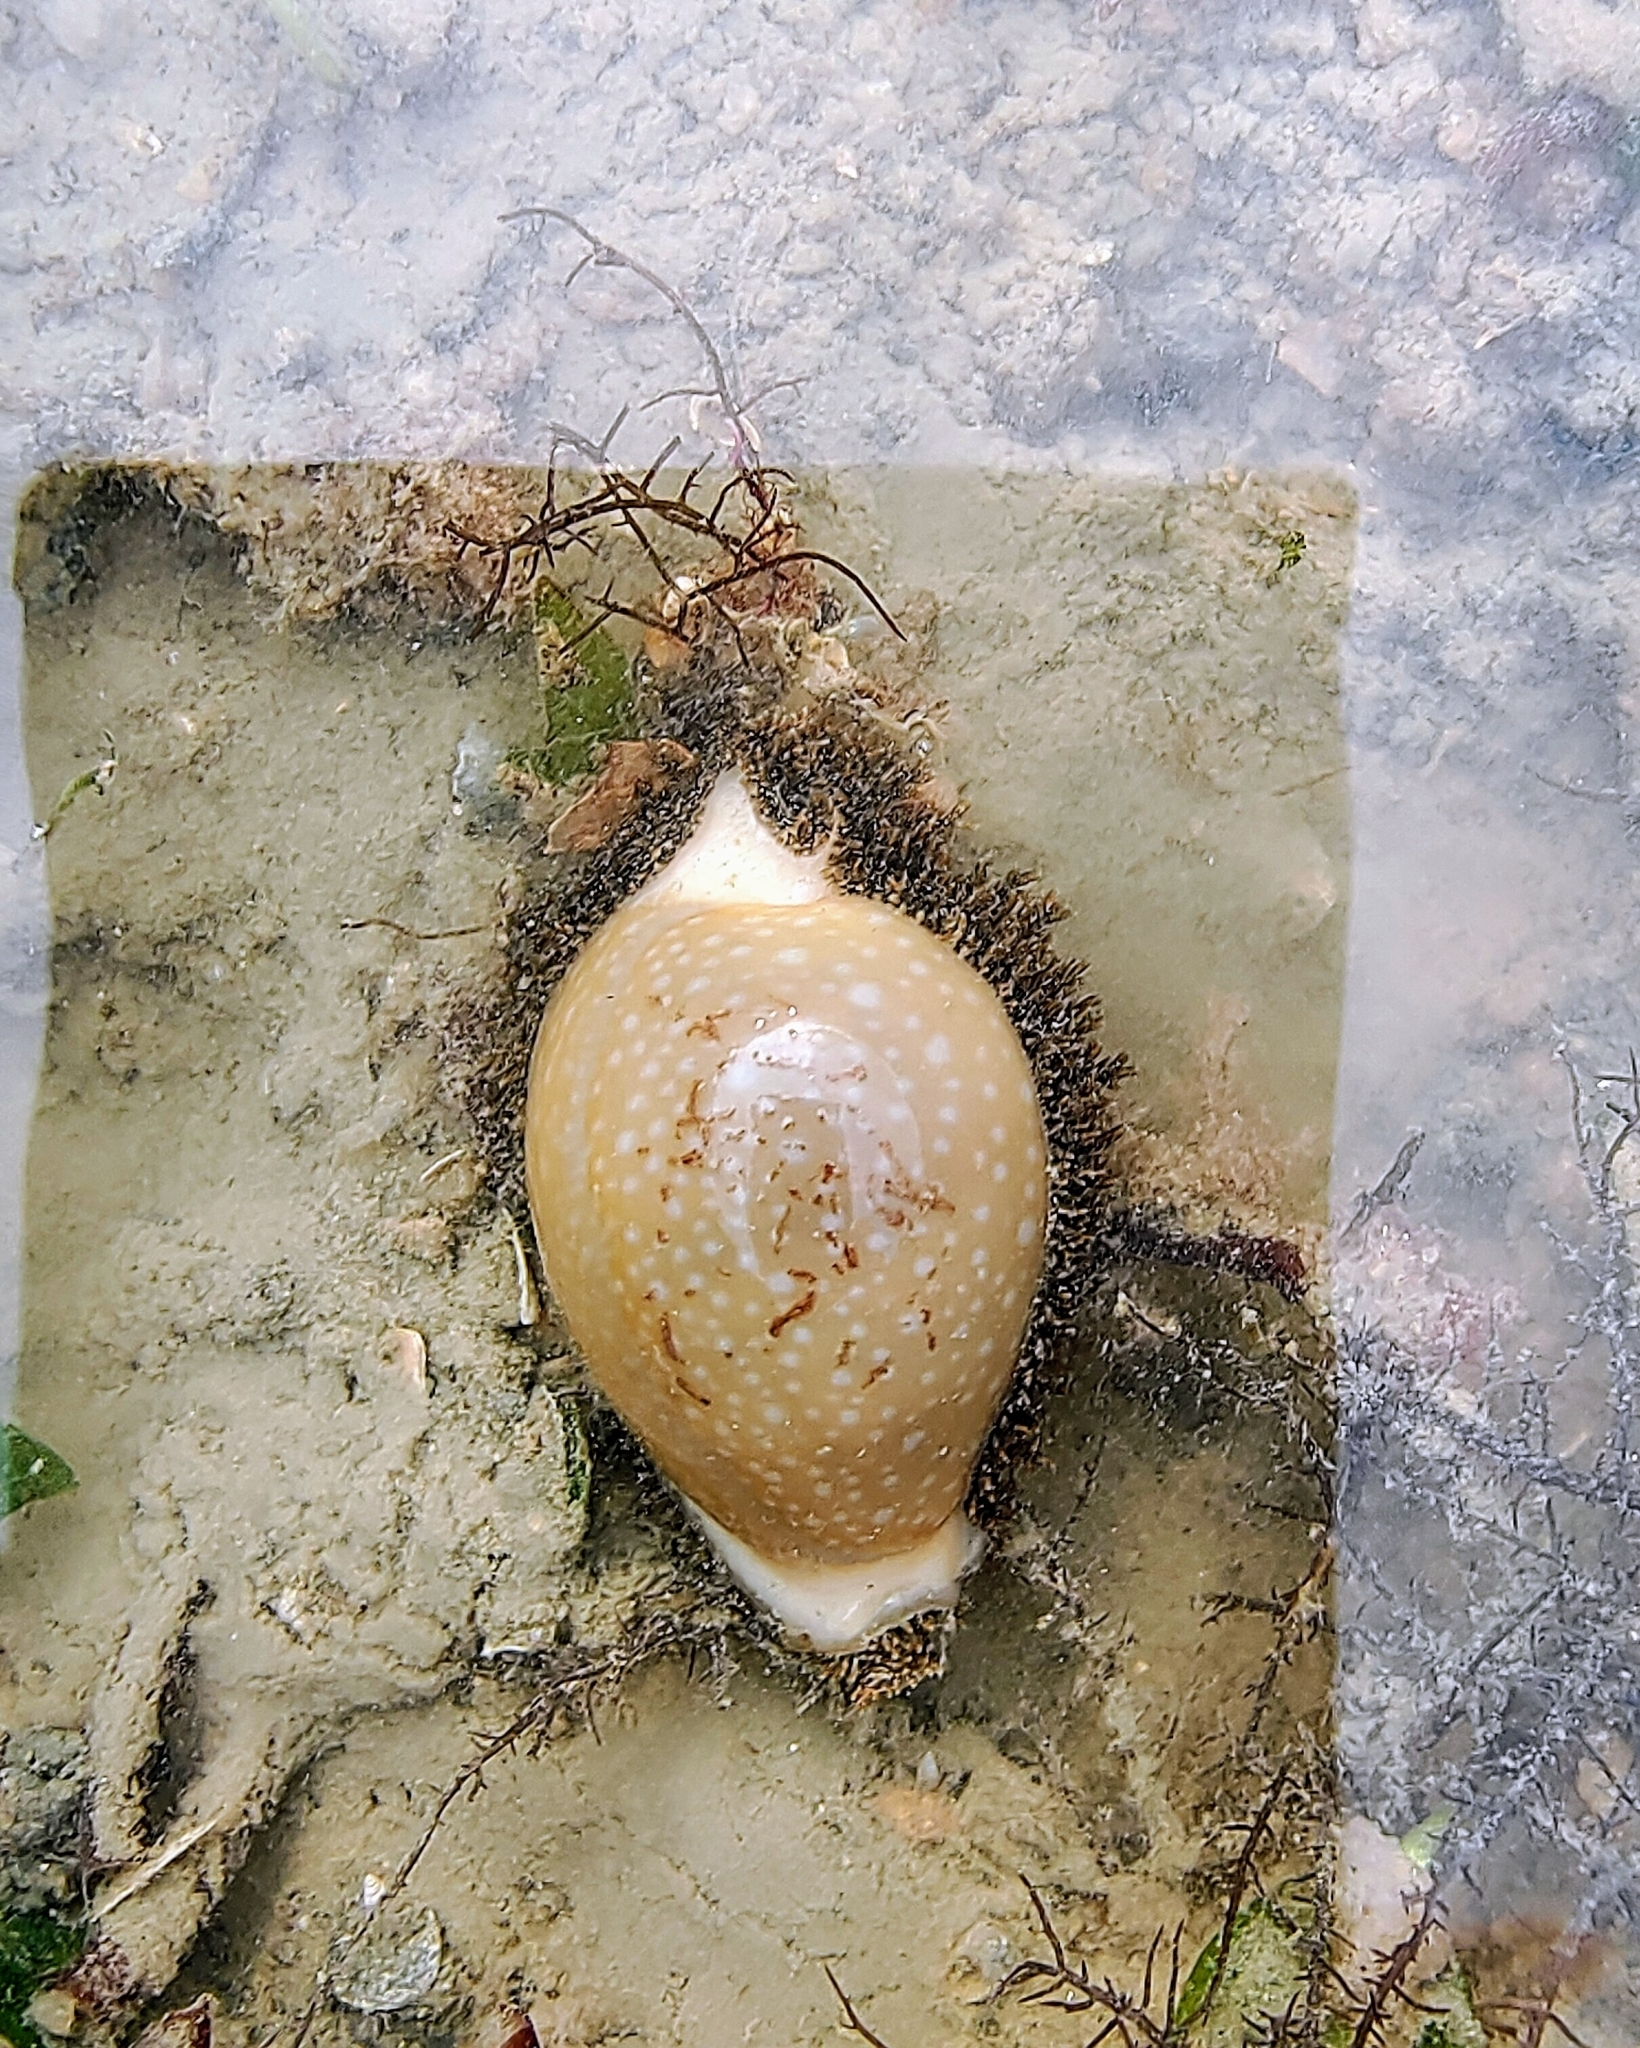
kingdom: Animalia
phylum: Mollusca
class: Gastropoda
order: Littorinimorpha
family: Cypraeidae
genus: Naria
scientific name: Naria miliaris
